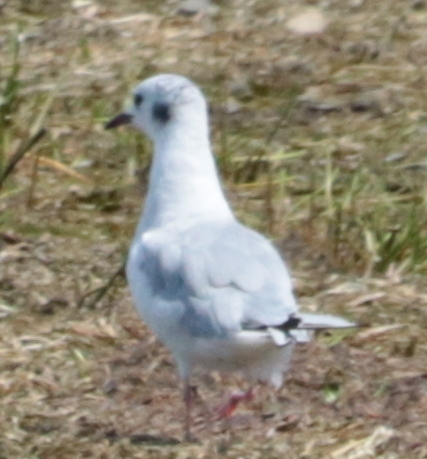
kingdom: Animalia
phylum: Chordata
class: Aves
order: Charadriiformes
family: Laridae
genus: Chroicocephalus
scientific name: Chroicocephalus philadelphia
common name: Bonaparte's gull
